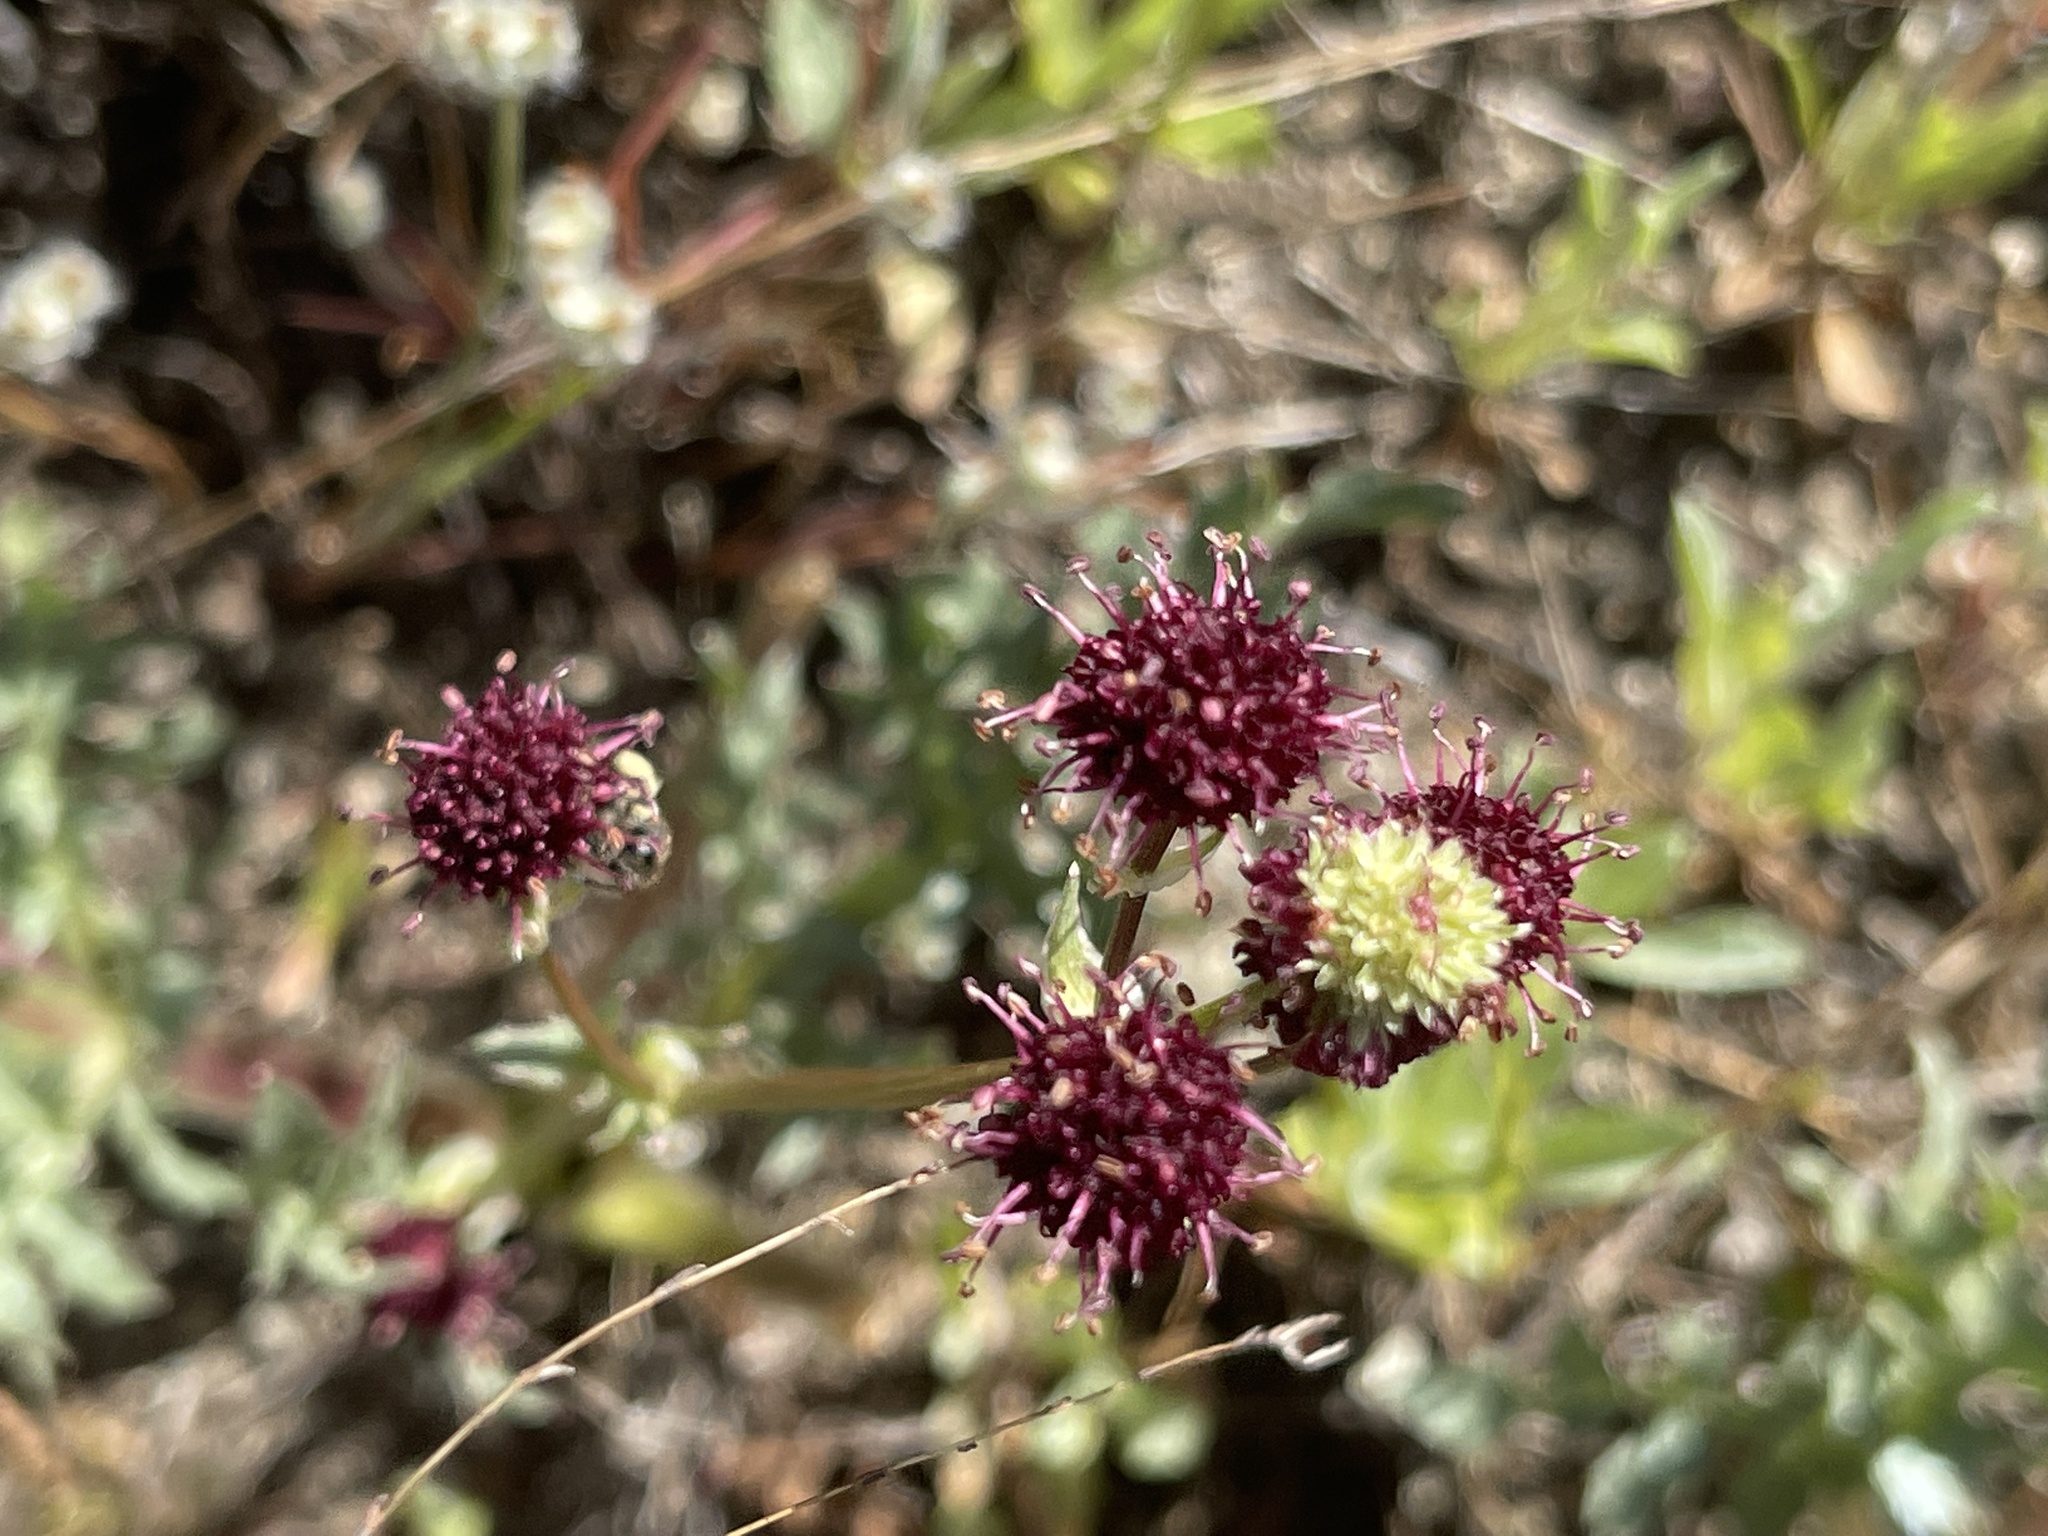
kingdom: Plantae
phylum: Tracheophyta
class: Magnoliopsida
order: Apiales
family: Apiaceae
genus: Sanicula
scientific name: Sanicula bipinnatifida
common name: Shoe-buttons
